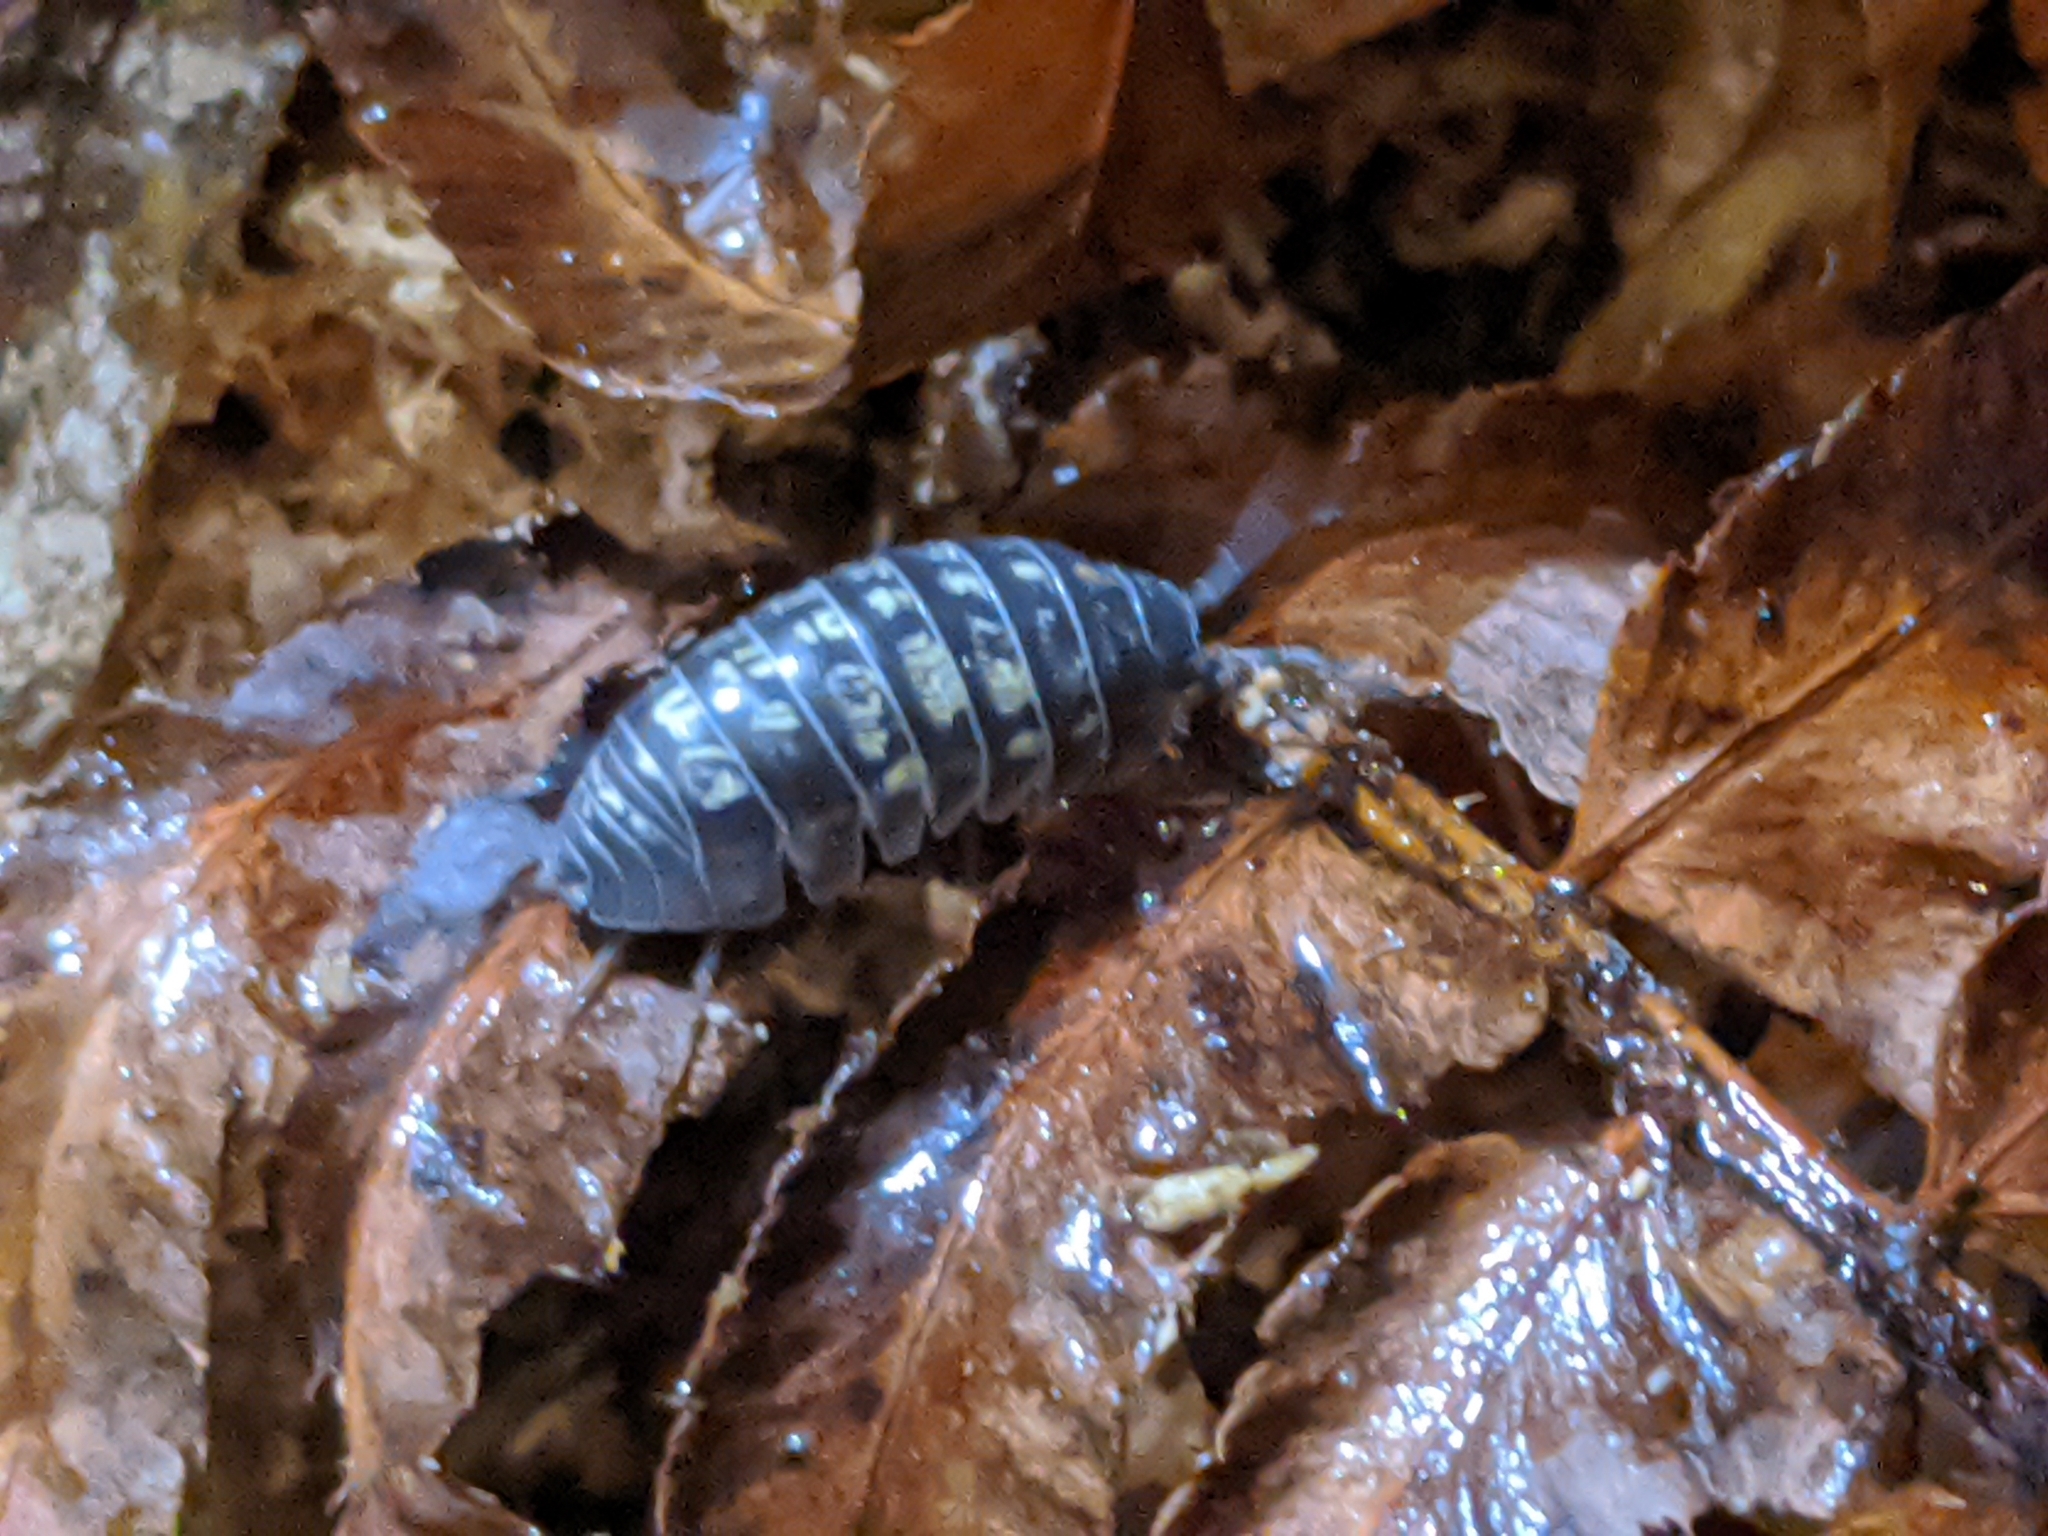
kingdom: Animalia
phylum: Arthropoda
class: Malacostraca
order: Isopoda
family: Armadillidiidae
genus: Armadillidium
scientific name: Armadillidium vulgare
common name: Common pill woodlouse
